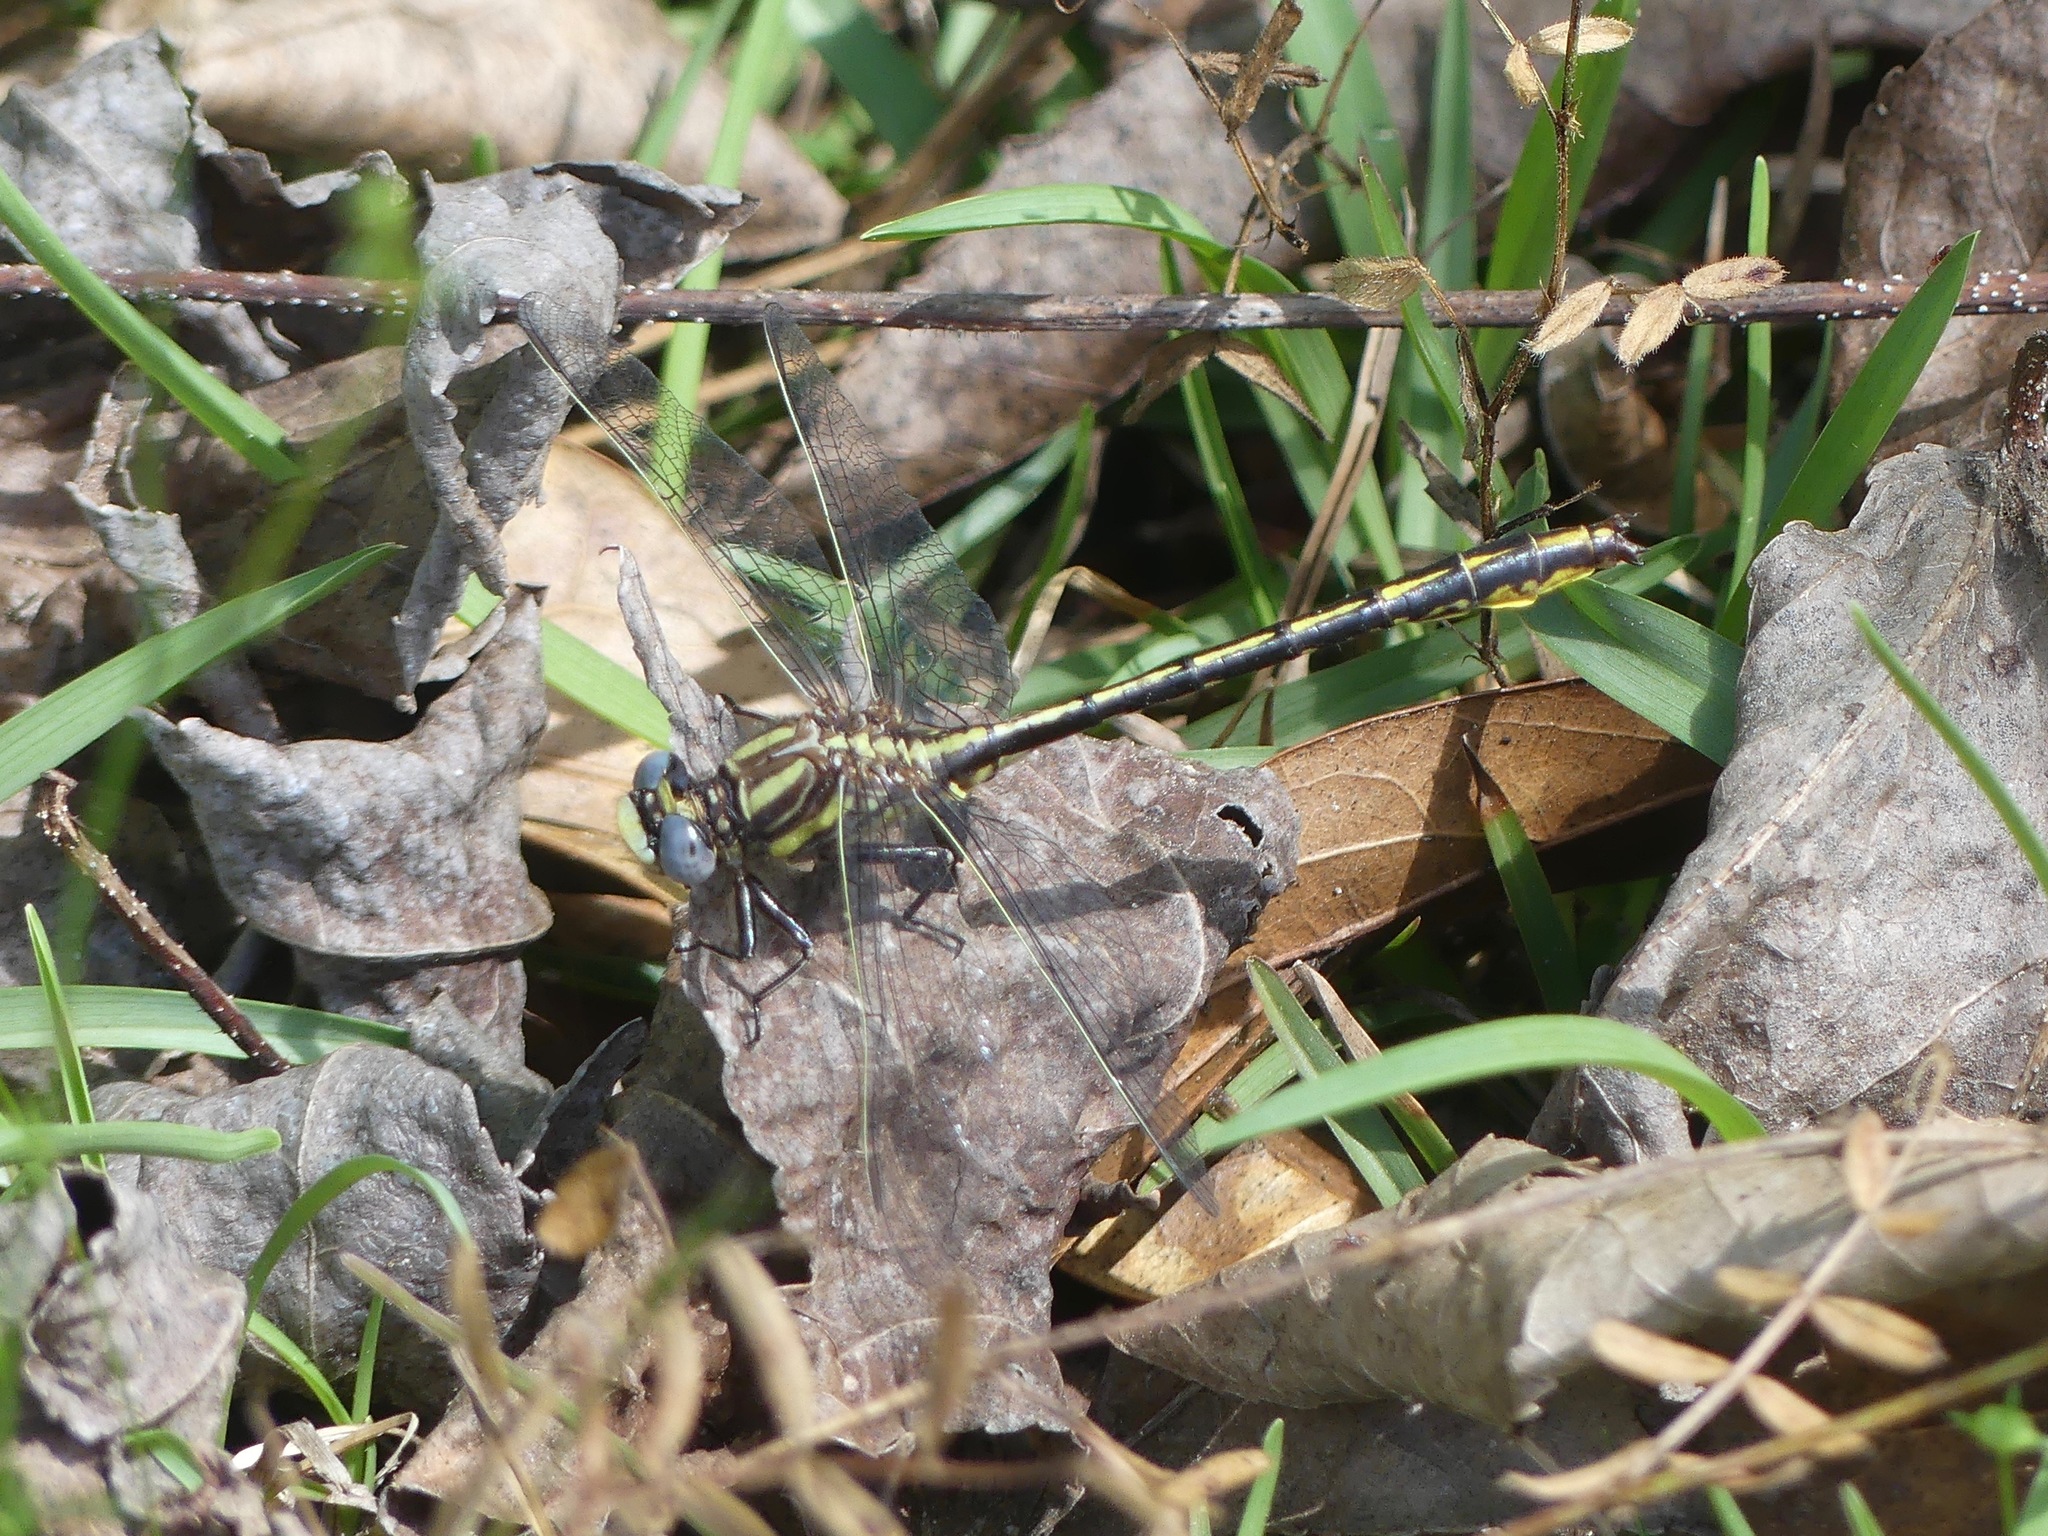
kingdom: Animalia
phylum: Arthropoda
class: Insecta
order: Odonata
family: Gomphidae
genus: Phanogomphus
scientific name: Phanogomphus oklahomensis
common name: Oklahoma clubtail
